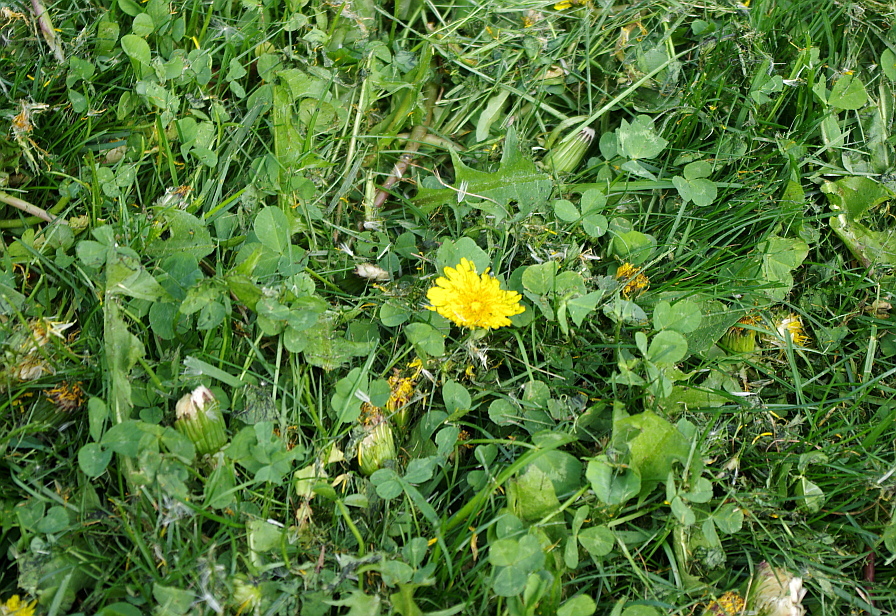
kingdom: Plantae
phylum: Tracheophyta
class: Magnoliopsida
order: Asterales
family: Asteraceae
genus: Taraxacum
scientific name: Taraxacum officinale
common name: Common dandelion
